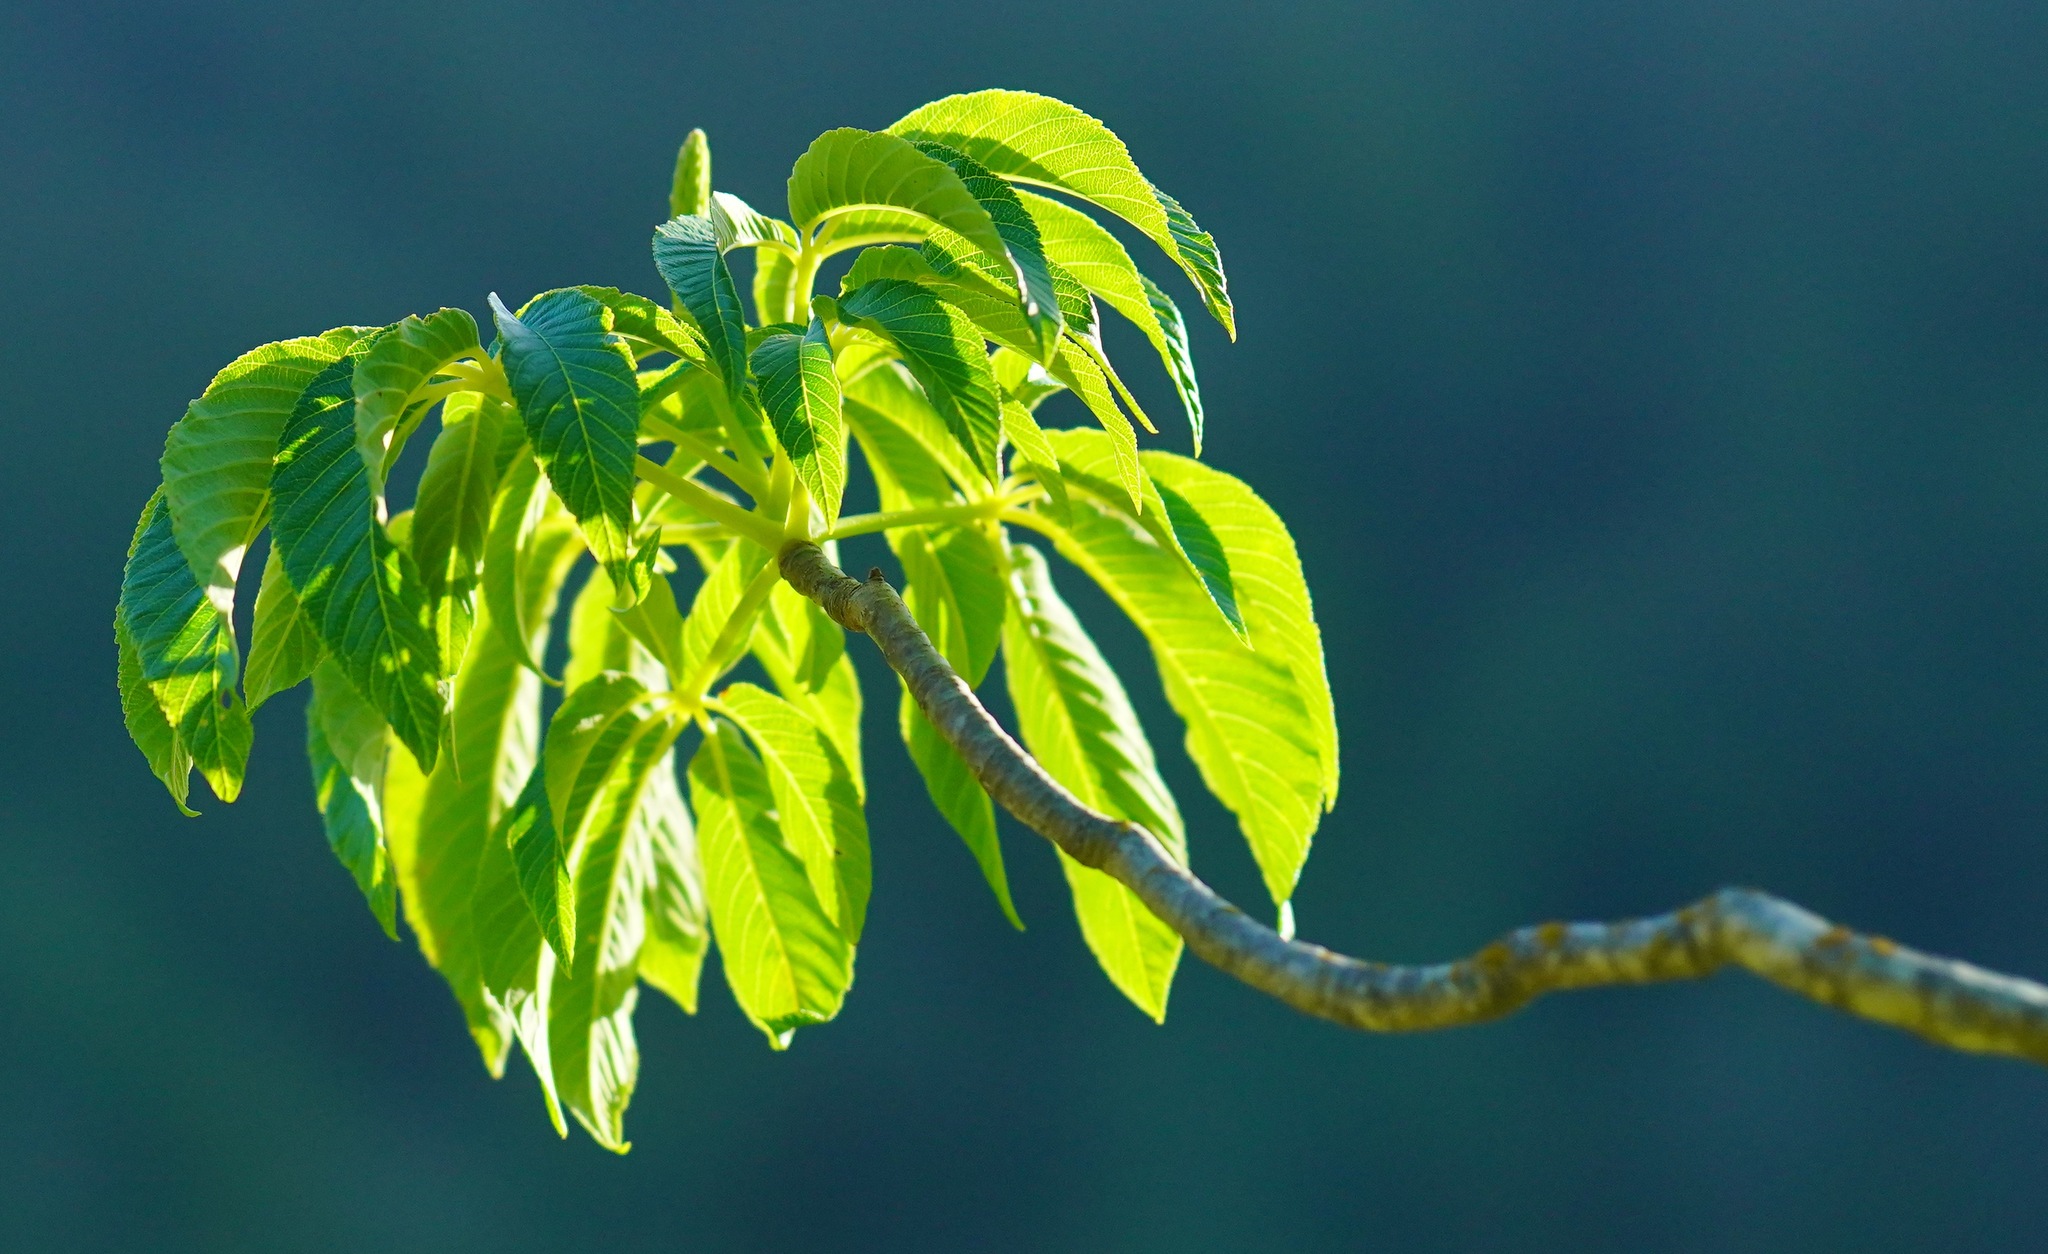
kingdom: Plantae
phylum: Tracheophyta
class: Magnoliopsida
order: Sapindales
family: Sapindaceae
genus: Aesculus
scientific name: Aesculus californica
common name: California buckeye
